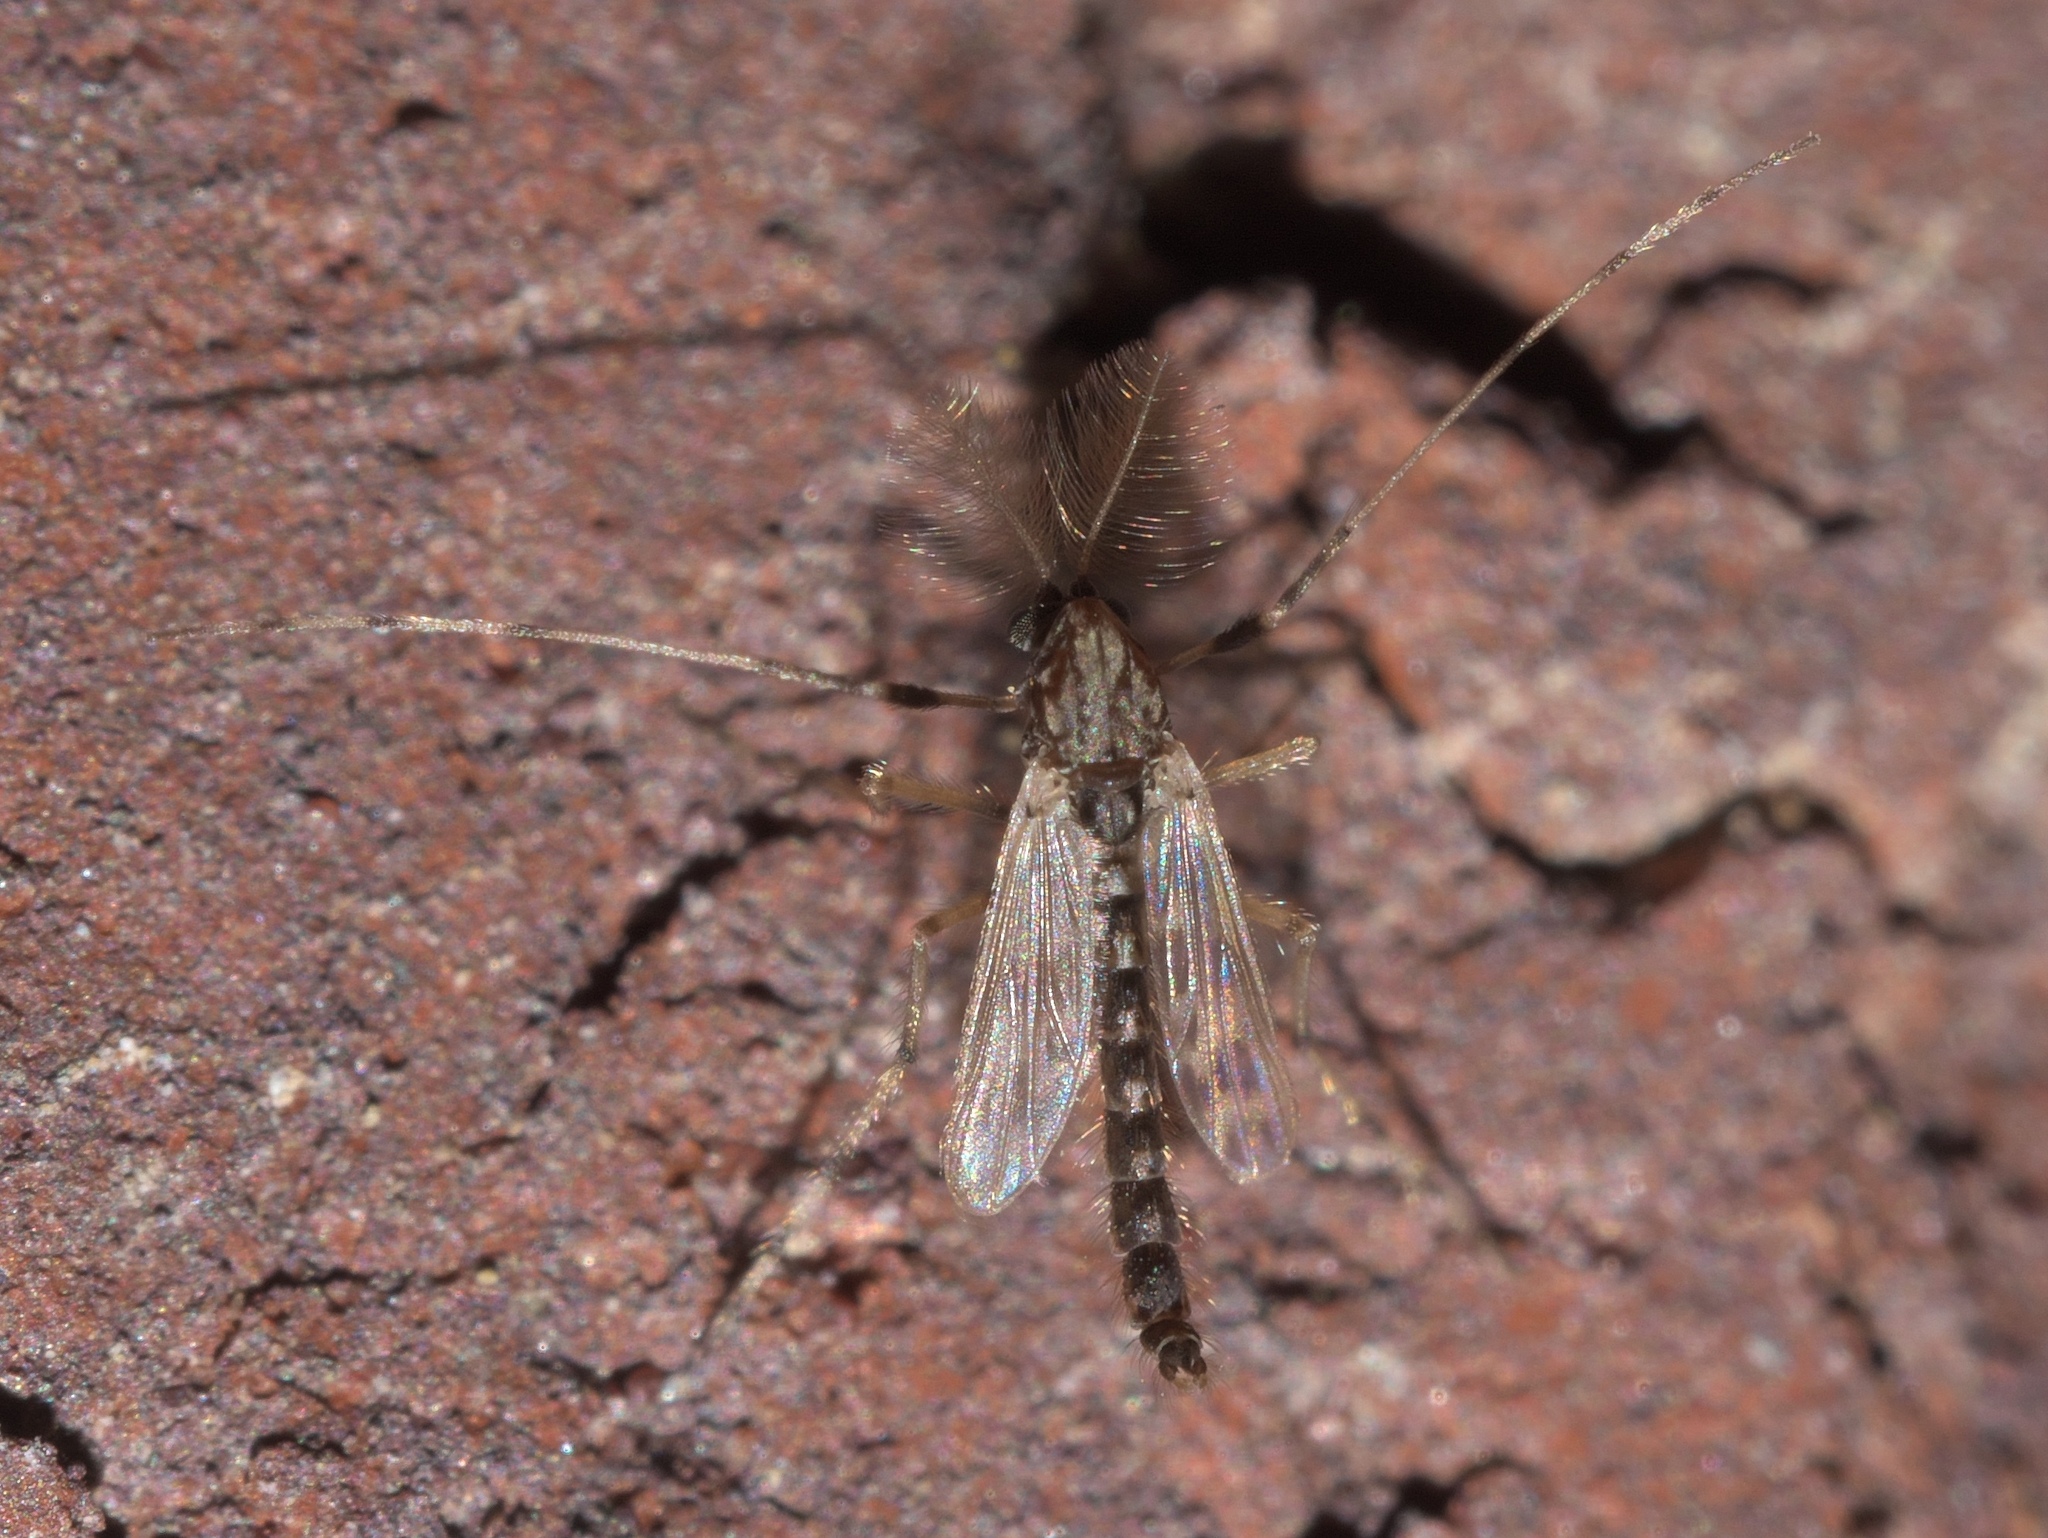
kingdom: Animalia
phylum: Arthropoda
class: Insecta
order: Diptera
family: Chironomidae
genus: Zavreliella
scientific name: Zavreliella marmorata
